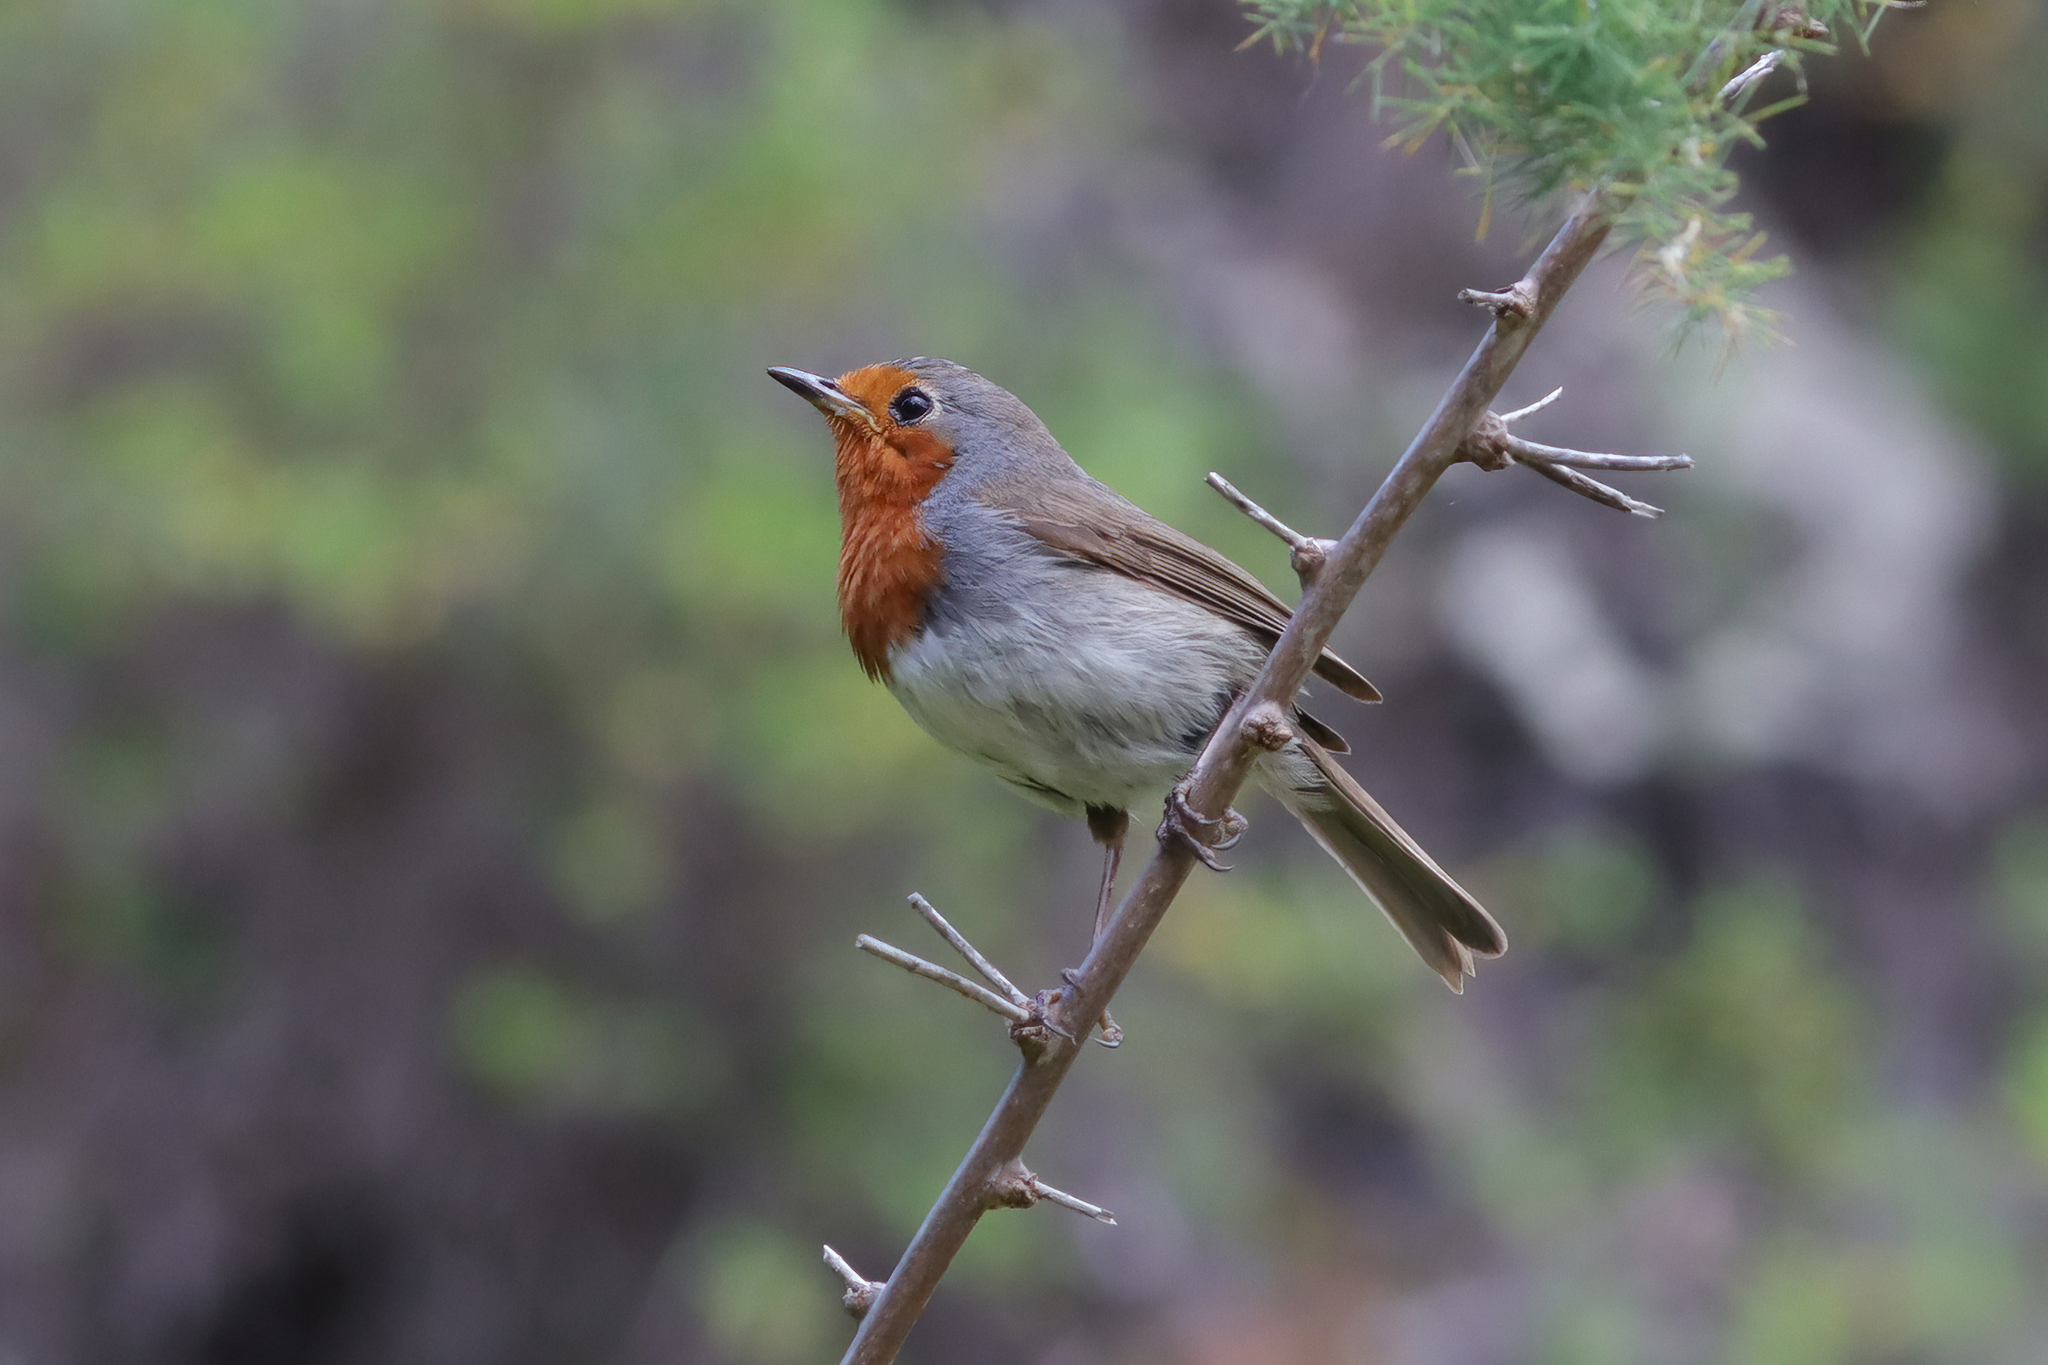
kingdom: Animalia
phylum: Chordata
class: Aves
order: Passeriformes
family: Muscicapidae
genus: Erithacus
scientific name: Erithacus rubecula
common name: European robin
